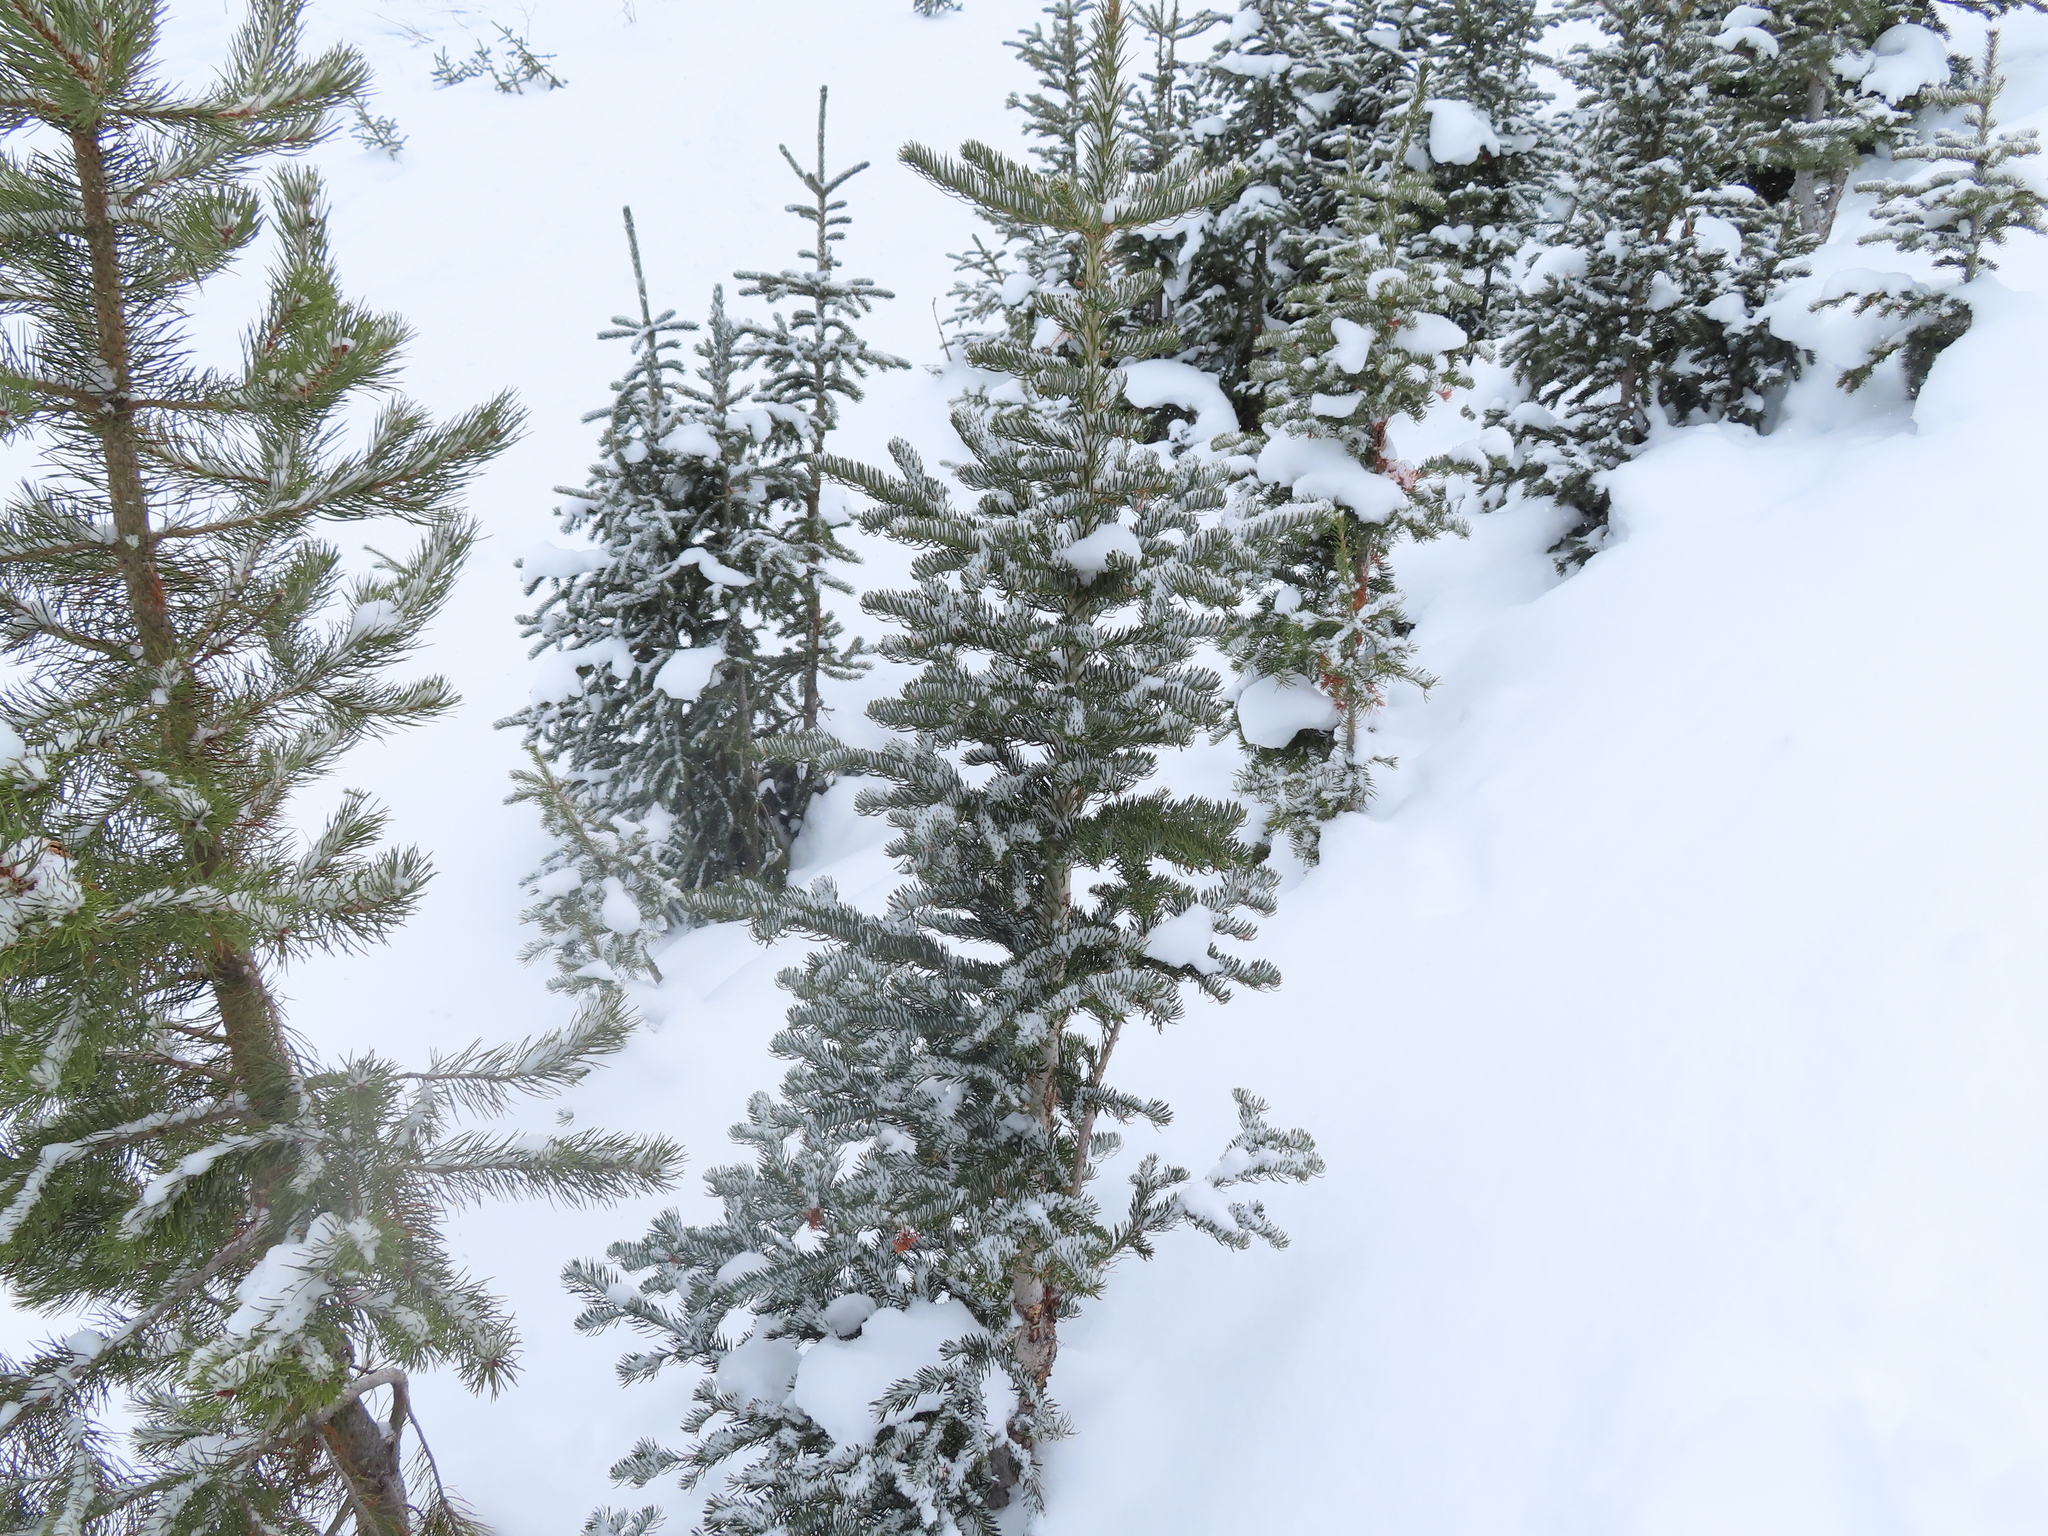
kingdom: Plantae
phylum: Tracheophyta
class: Pinopsida
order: Pinales
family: Pinaceae
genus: Abies
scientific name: Abies lasiocarpa
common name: Subalpine fir
